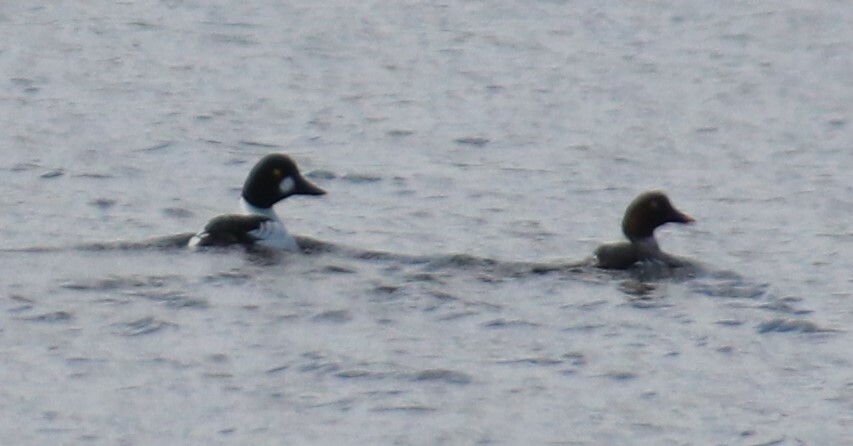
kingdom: Animalia
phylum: Chordata
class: Aves
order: Anseriformes
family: Anatidae
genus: Bucephala
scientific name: Bucephala clangula
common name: Common goldeneye
